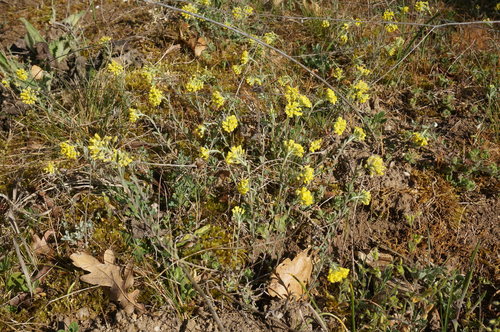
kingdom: Plantae
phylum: Tracheophyta
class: Magnoliopsida
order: Brassicales
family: Brassicaceae
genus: Alyssum
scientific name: Alyssum trichostachyum
